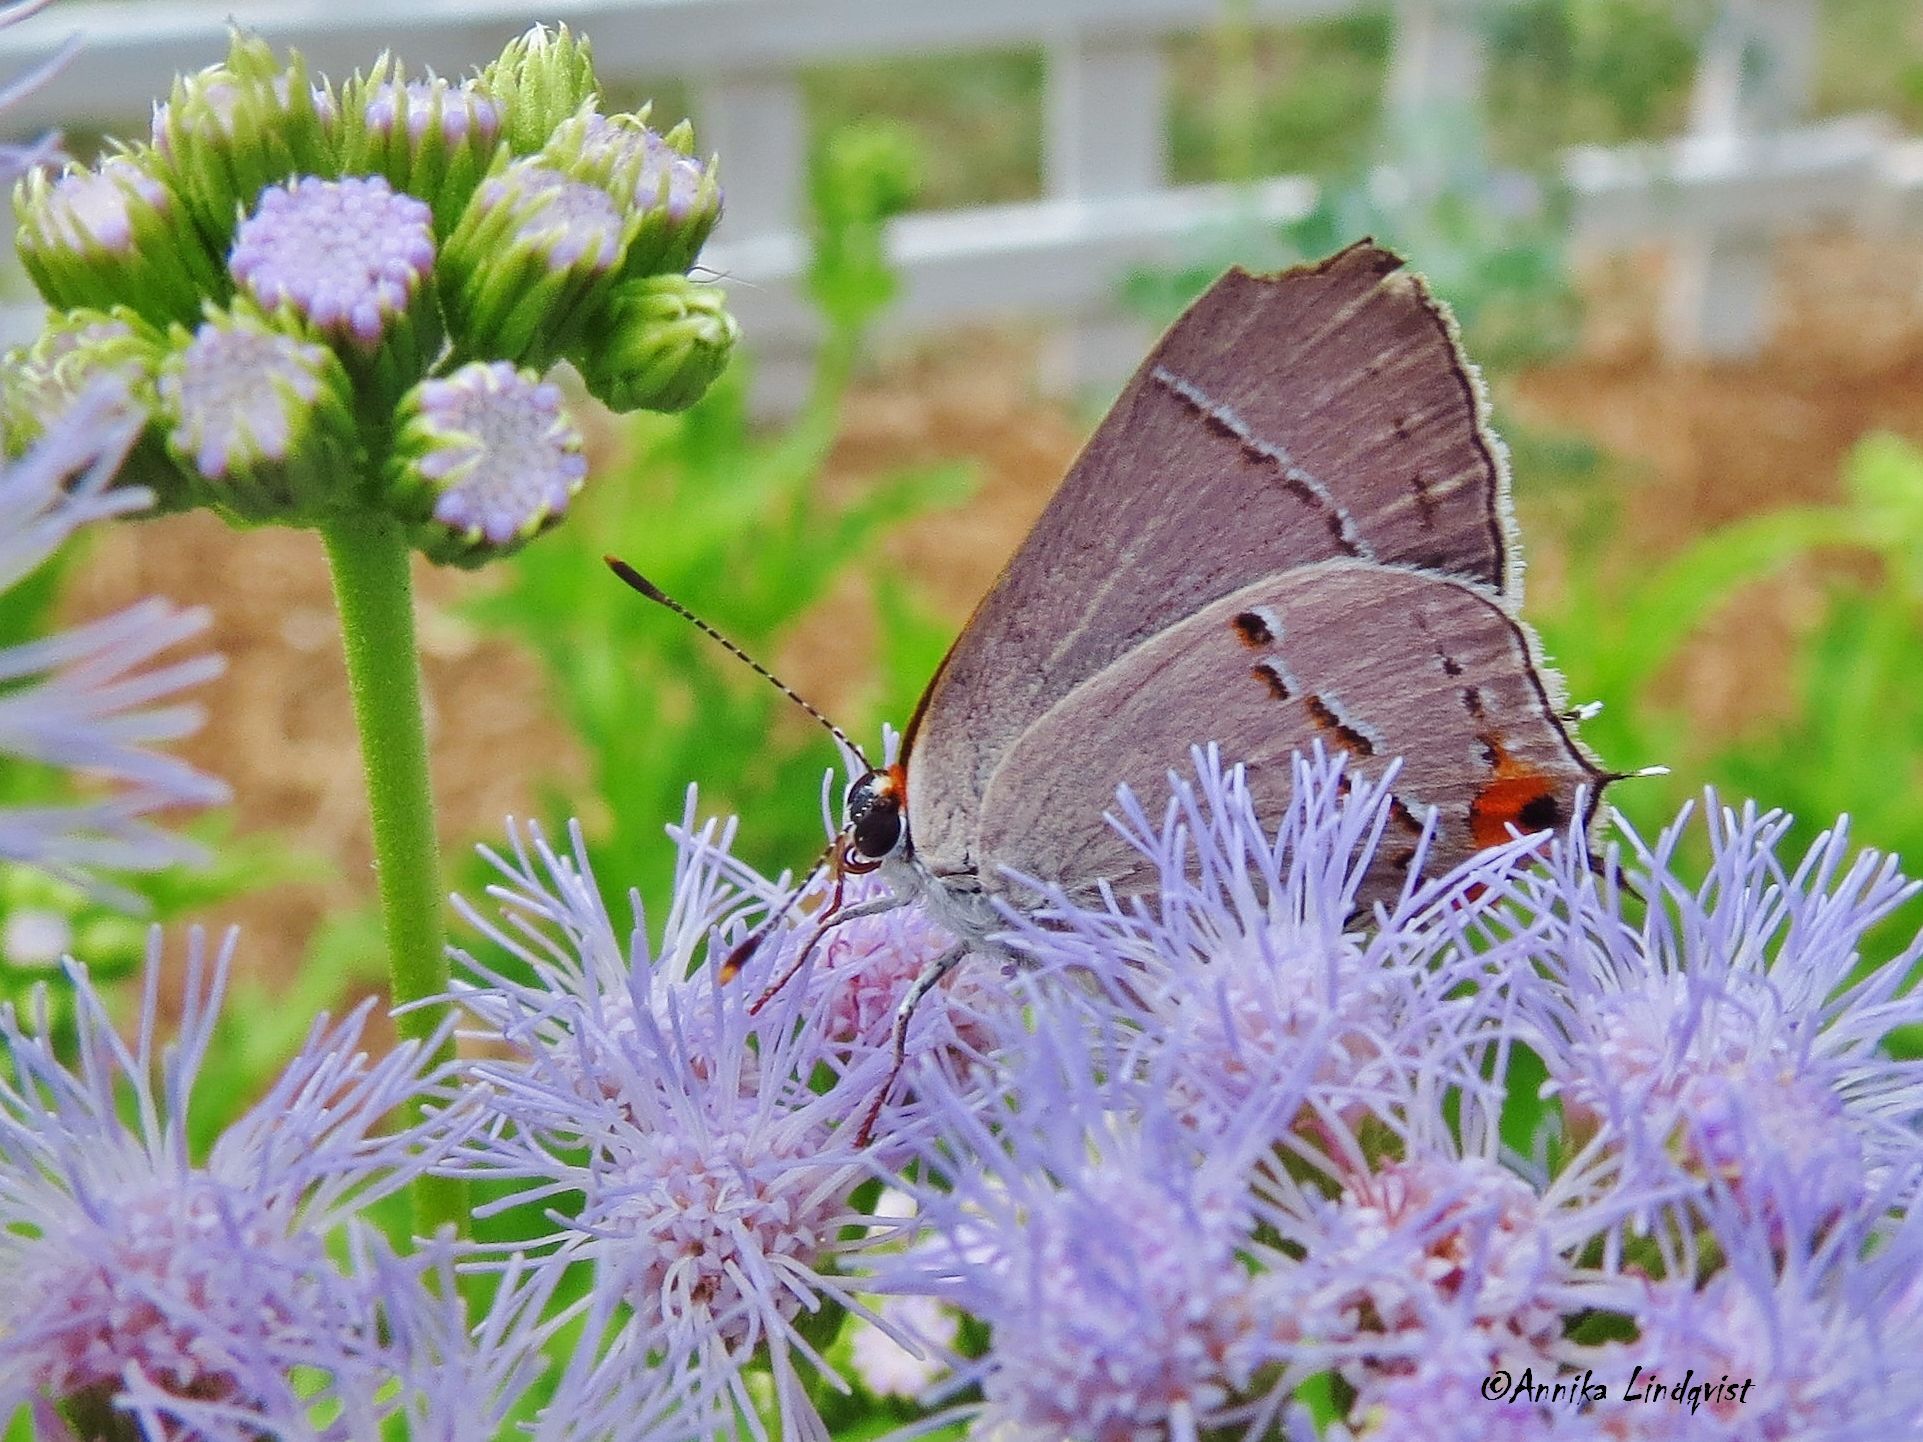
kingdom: Animalia
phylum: Arthropoda
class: Insecta
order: Lepidoptera
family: Lycaenidae
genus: Strymon
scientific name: Strymon melinus
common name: Gray hairstreak
